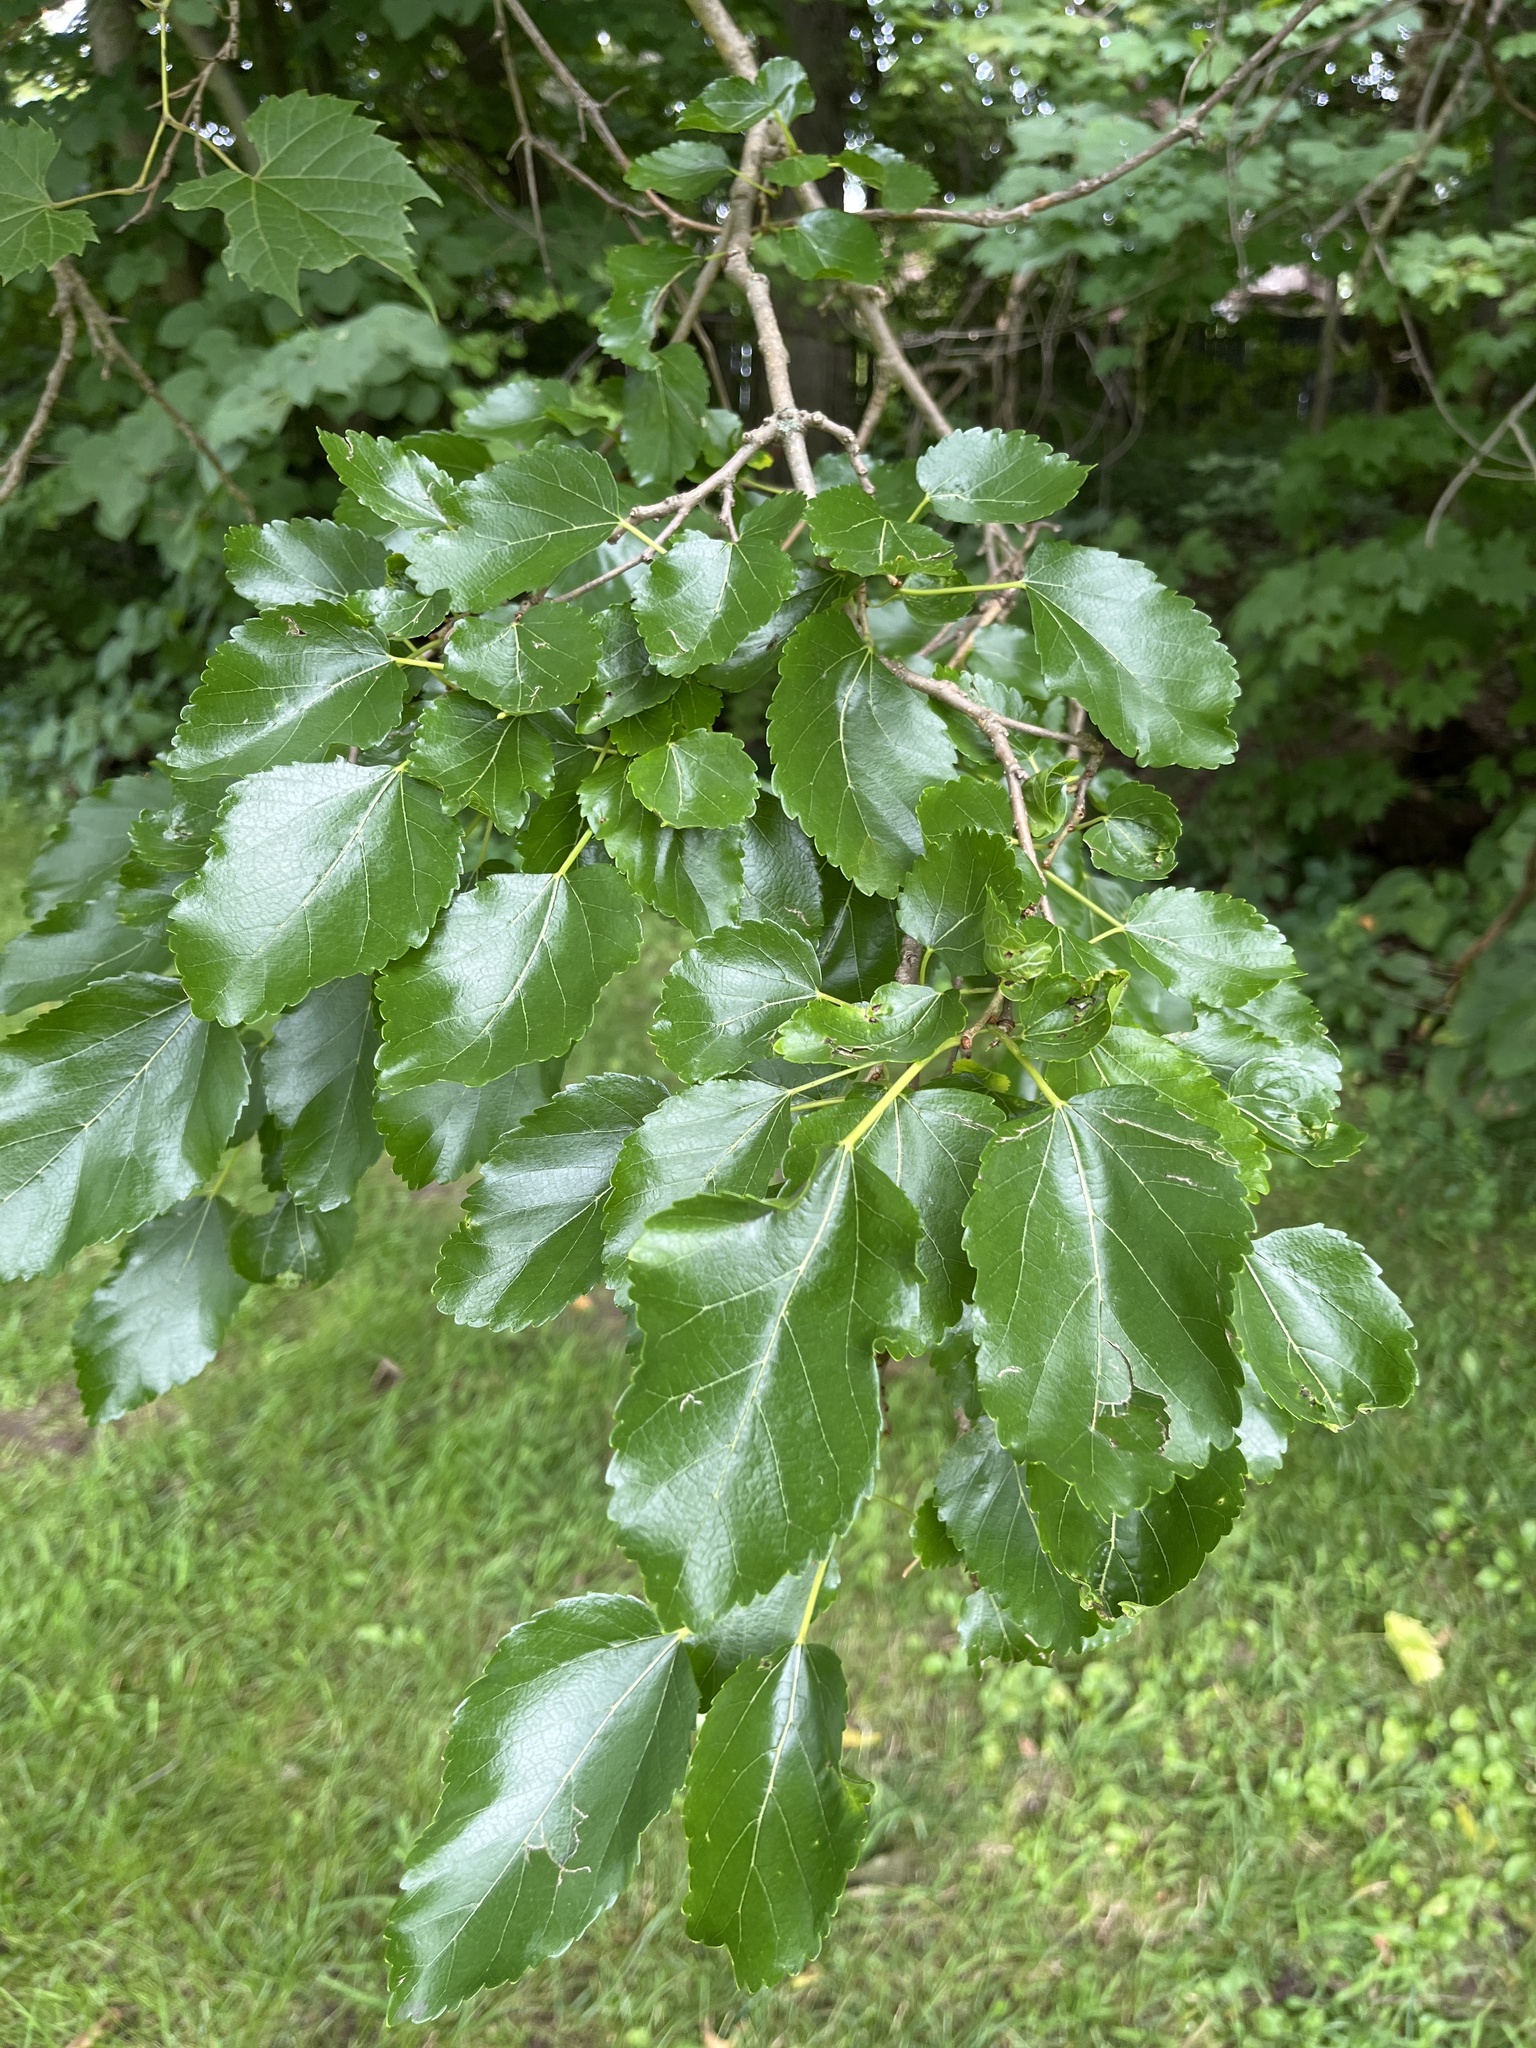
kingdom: Plantae
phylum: Tracheophyta
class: Magnoliopsida
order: Rosales
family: Moraceae
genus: Morus
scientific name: Morus alba
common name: White mulberry
